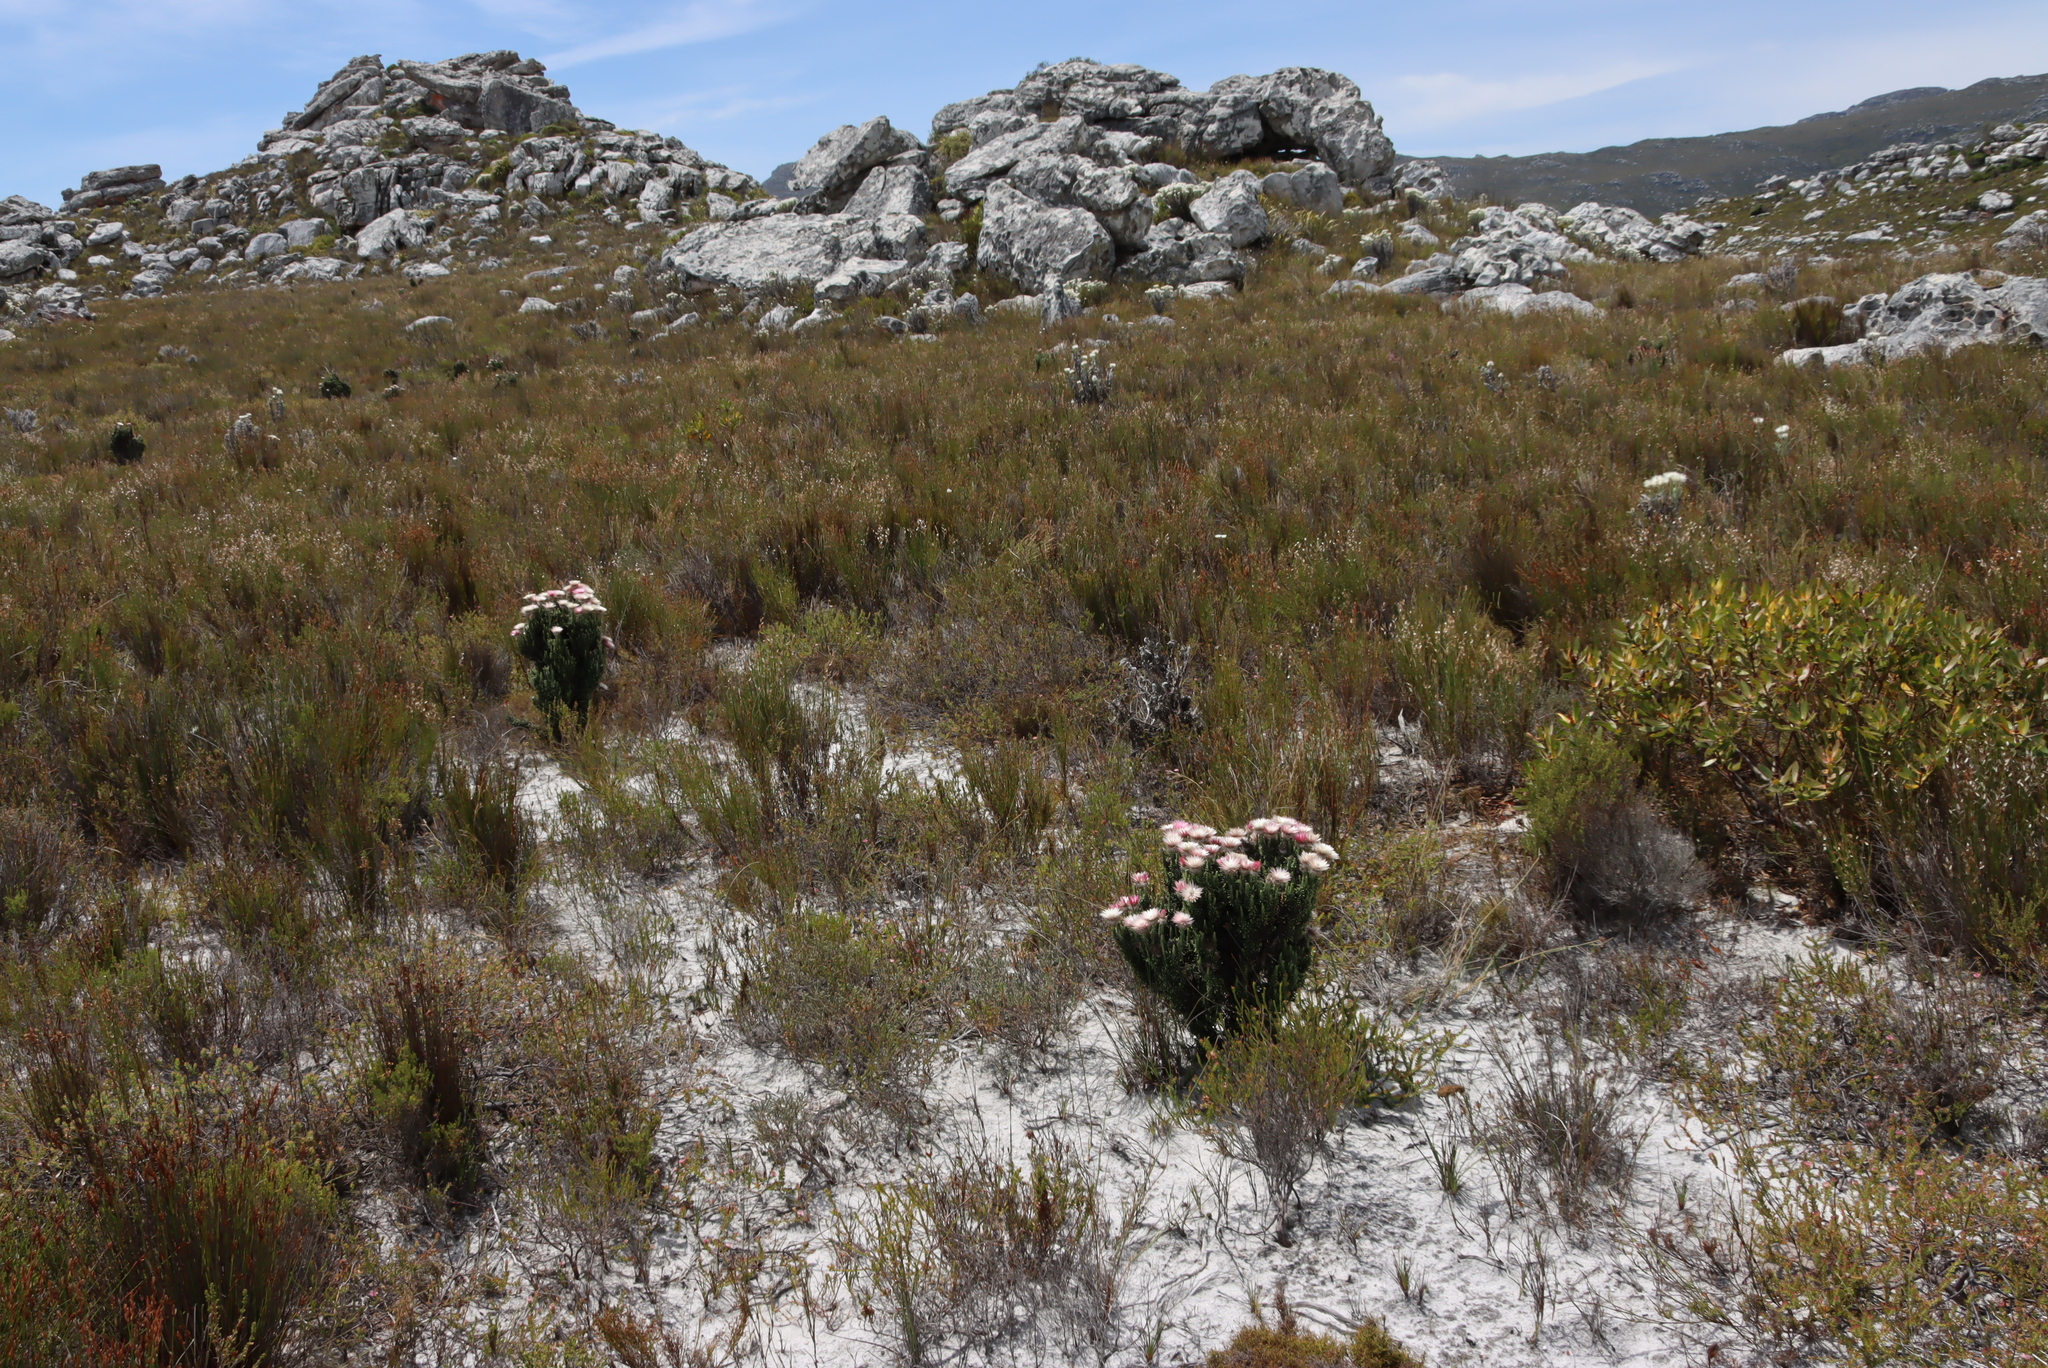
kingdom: Plantae
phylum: Tracheophyta
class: Magnoliopsida
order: Asterales
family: Asteraceae
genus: Phaenocoma
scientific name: Phaenocoma prolifera
